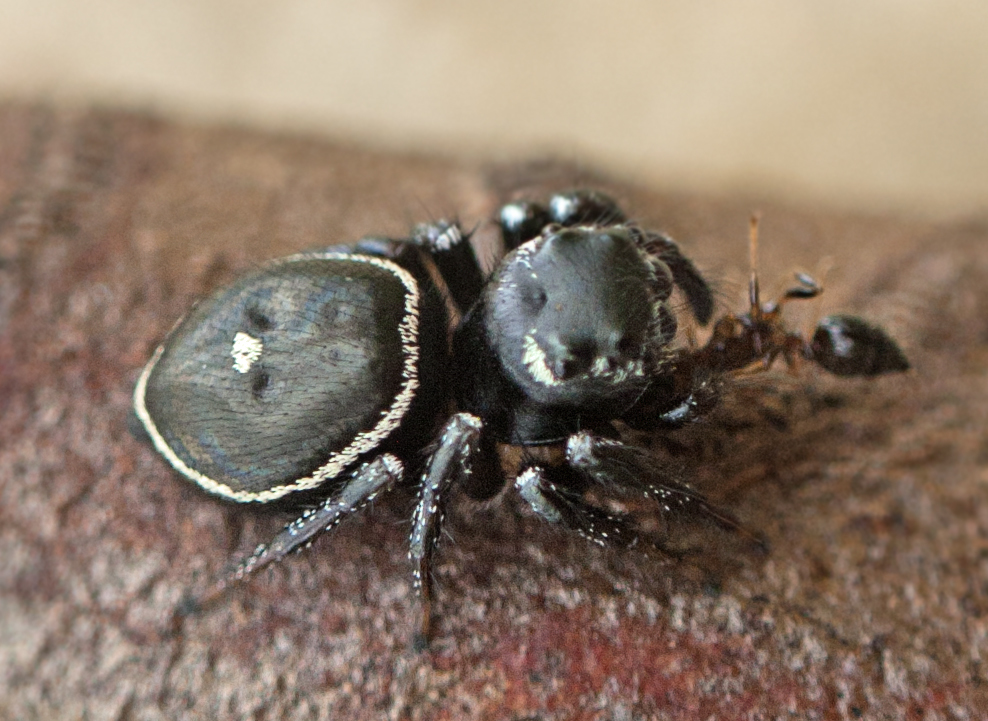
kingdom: Animalia
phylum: Arthropoda
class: Arachnida
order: Araneae
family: Salticidae
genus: Zenodorus
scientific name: Zenodorus orbiculatus
